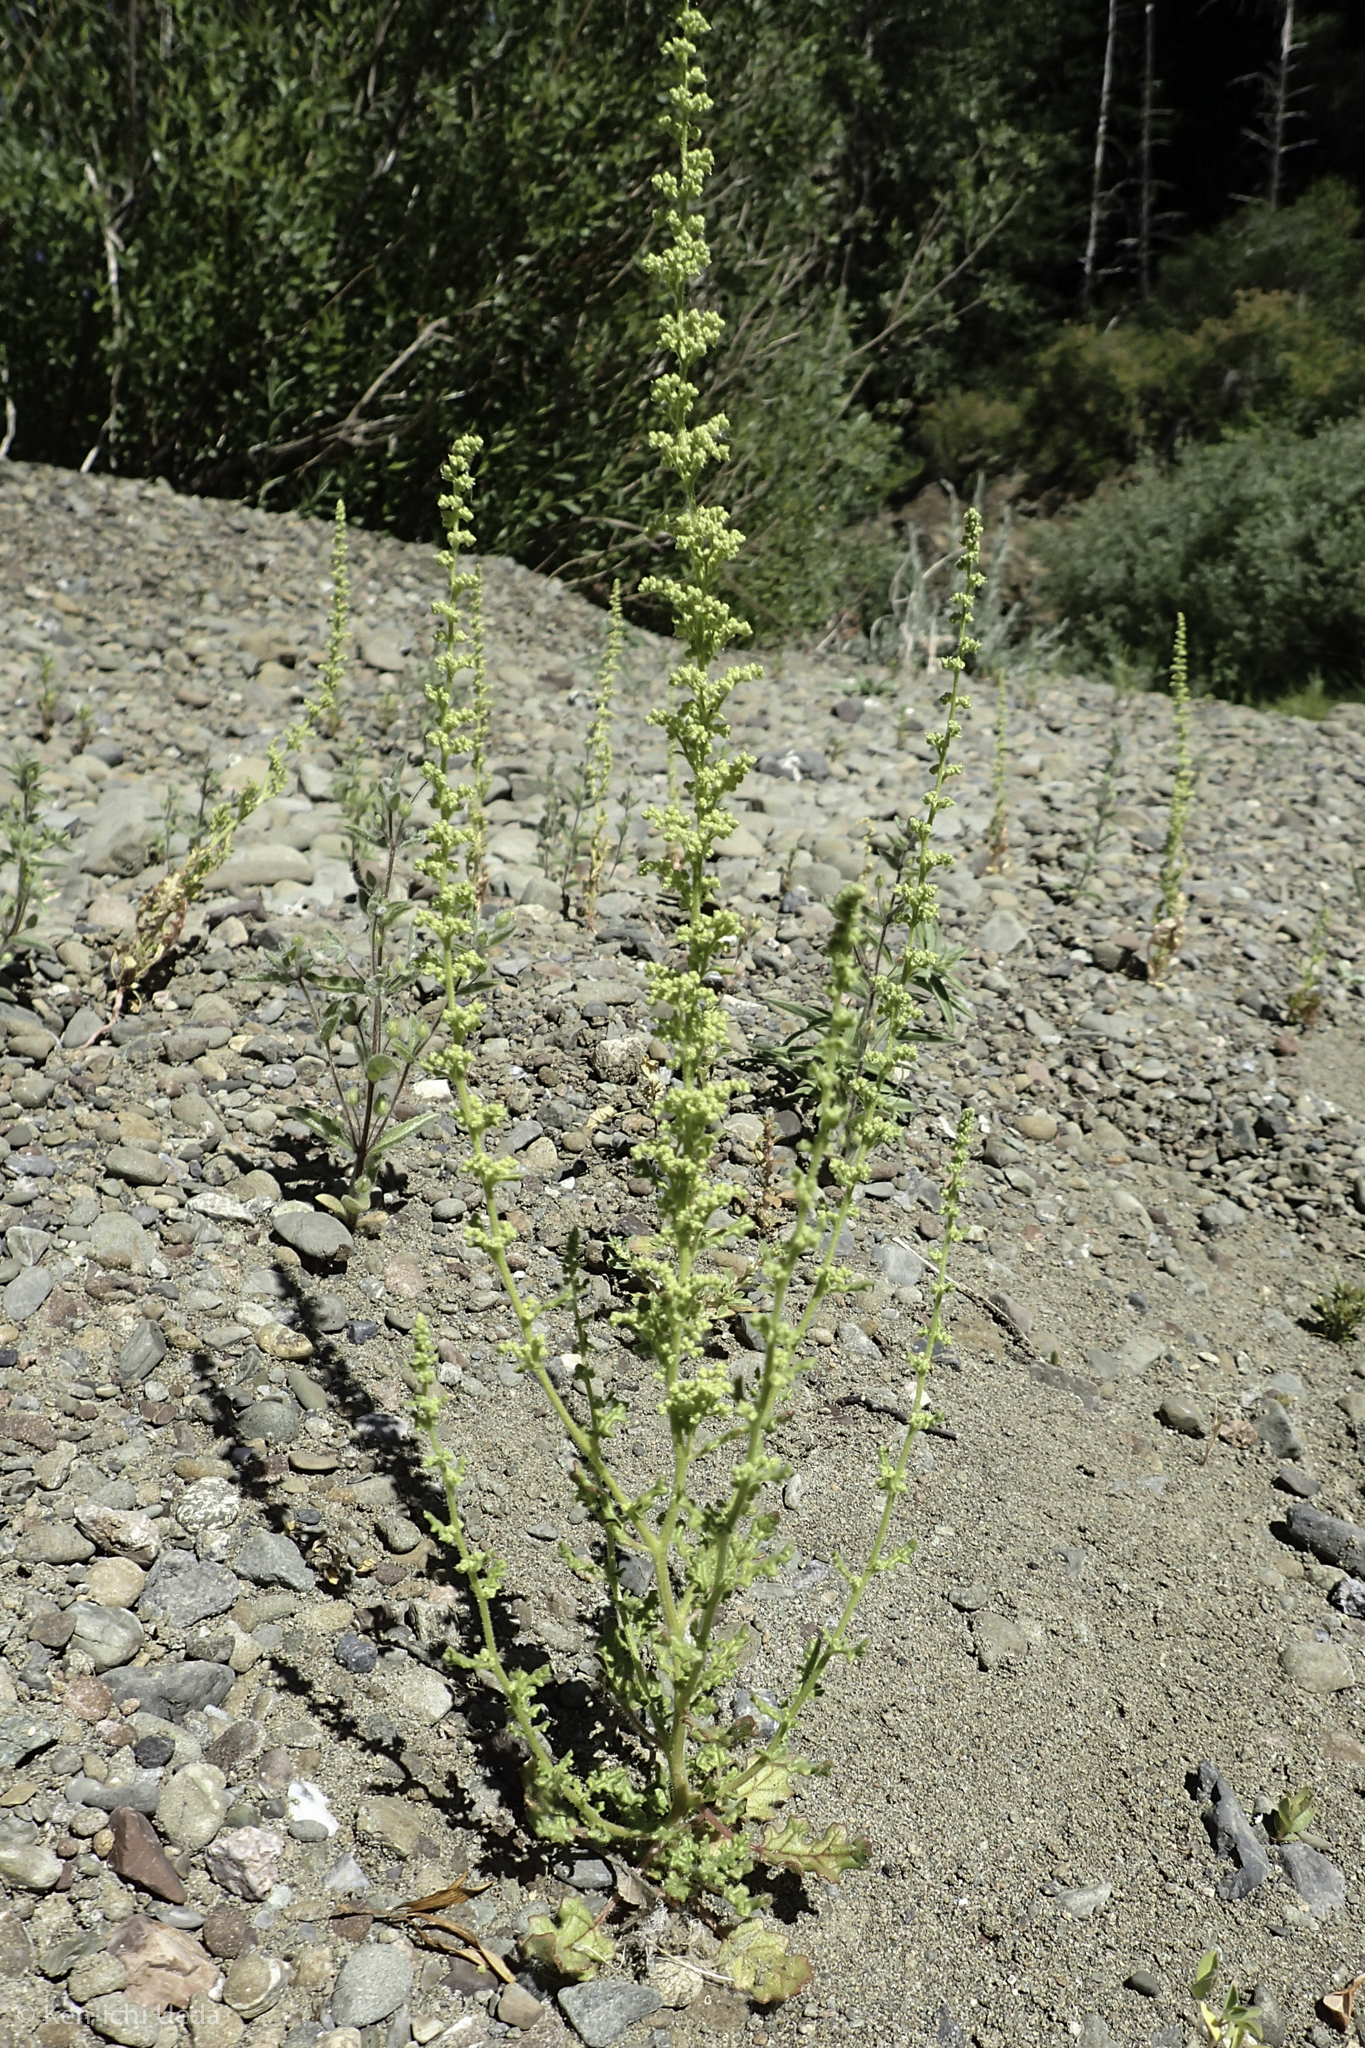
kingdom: Plantae
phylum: Tracheophyta
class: Magnoliopsida
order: Caryophyllales
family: Amaranthaceae
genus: Dysphania
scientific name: Dysphania botrys
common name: Feather-geranium
